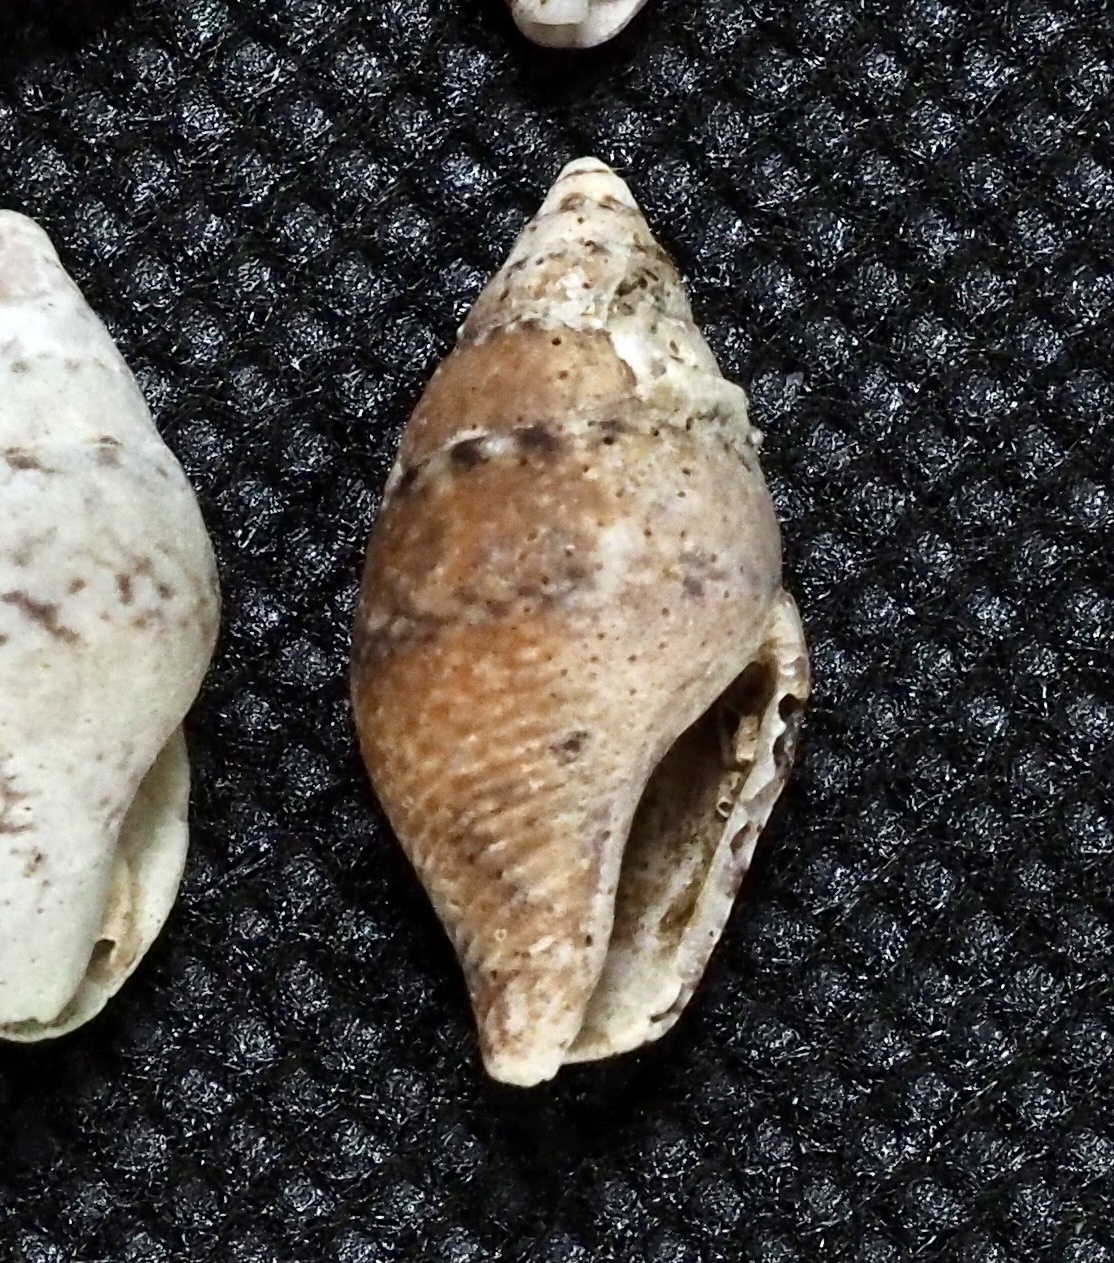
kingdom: Animalia
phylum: Mollusca
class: Gastropoda
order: Neogastropoda
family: Columbellidae
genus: Pyrene
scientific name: Pyrene flava
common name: Yellow dovesnail
